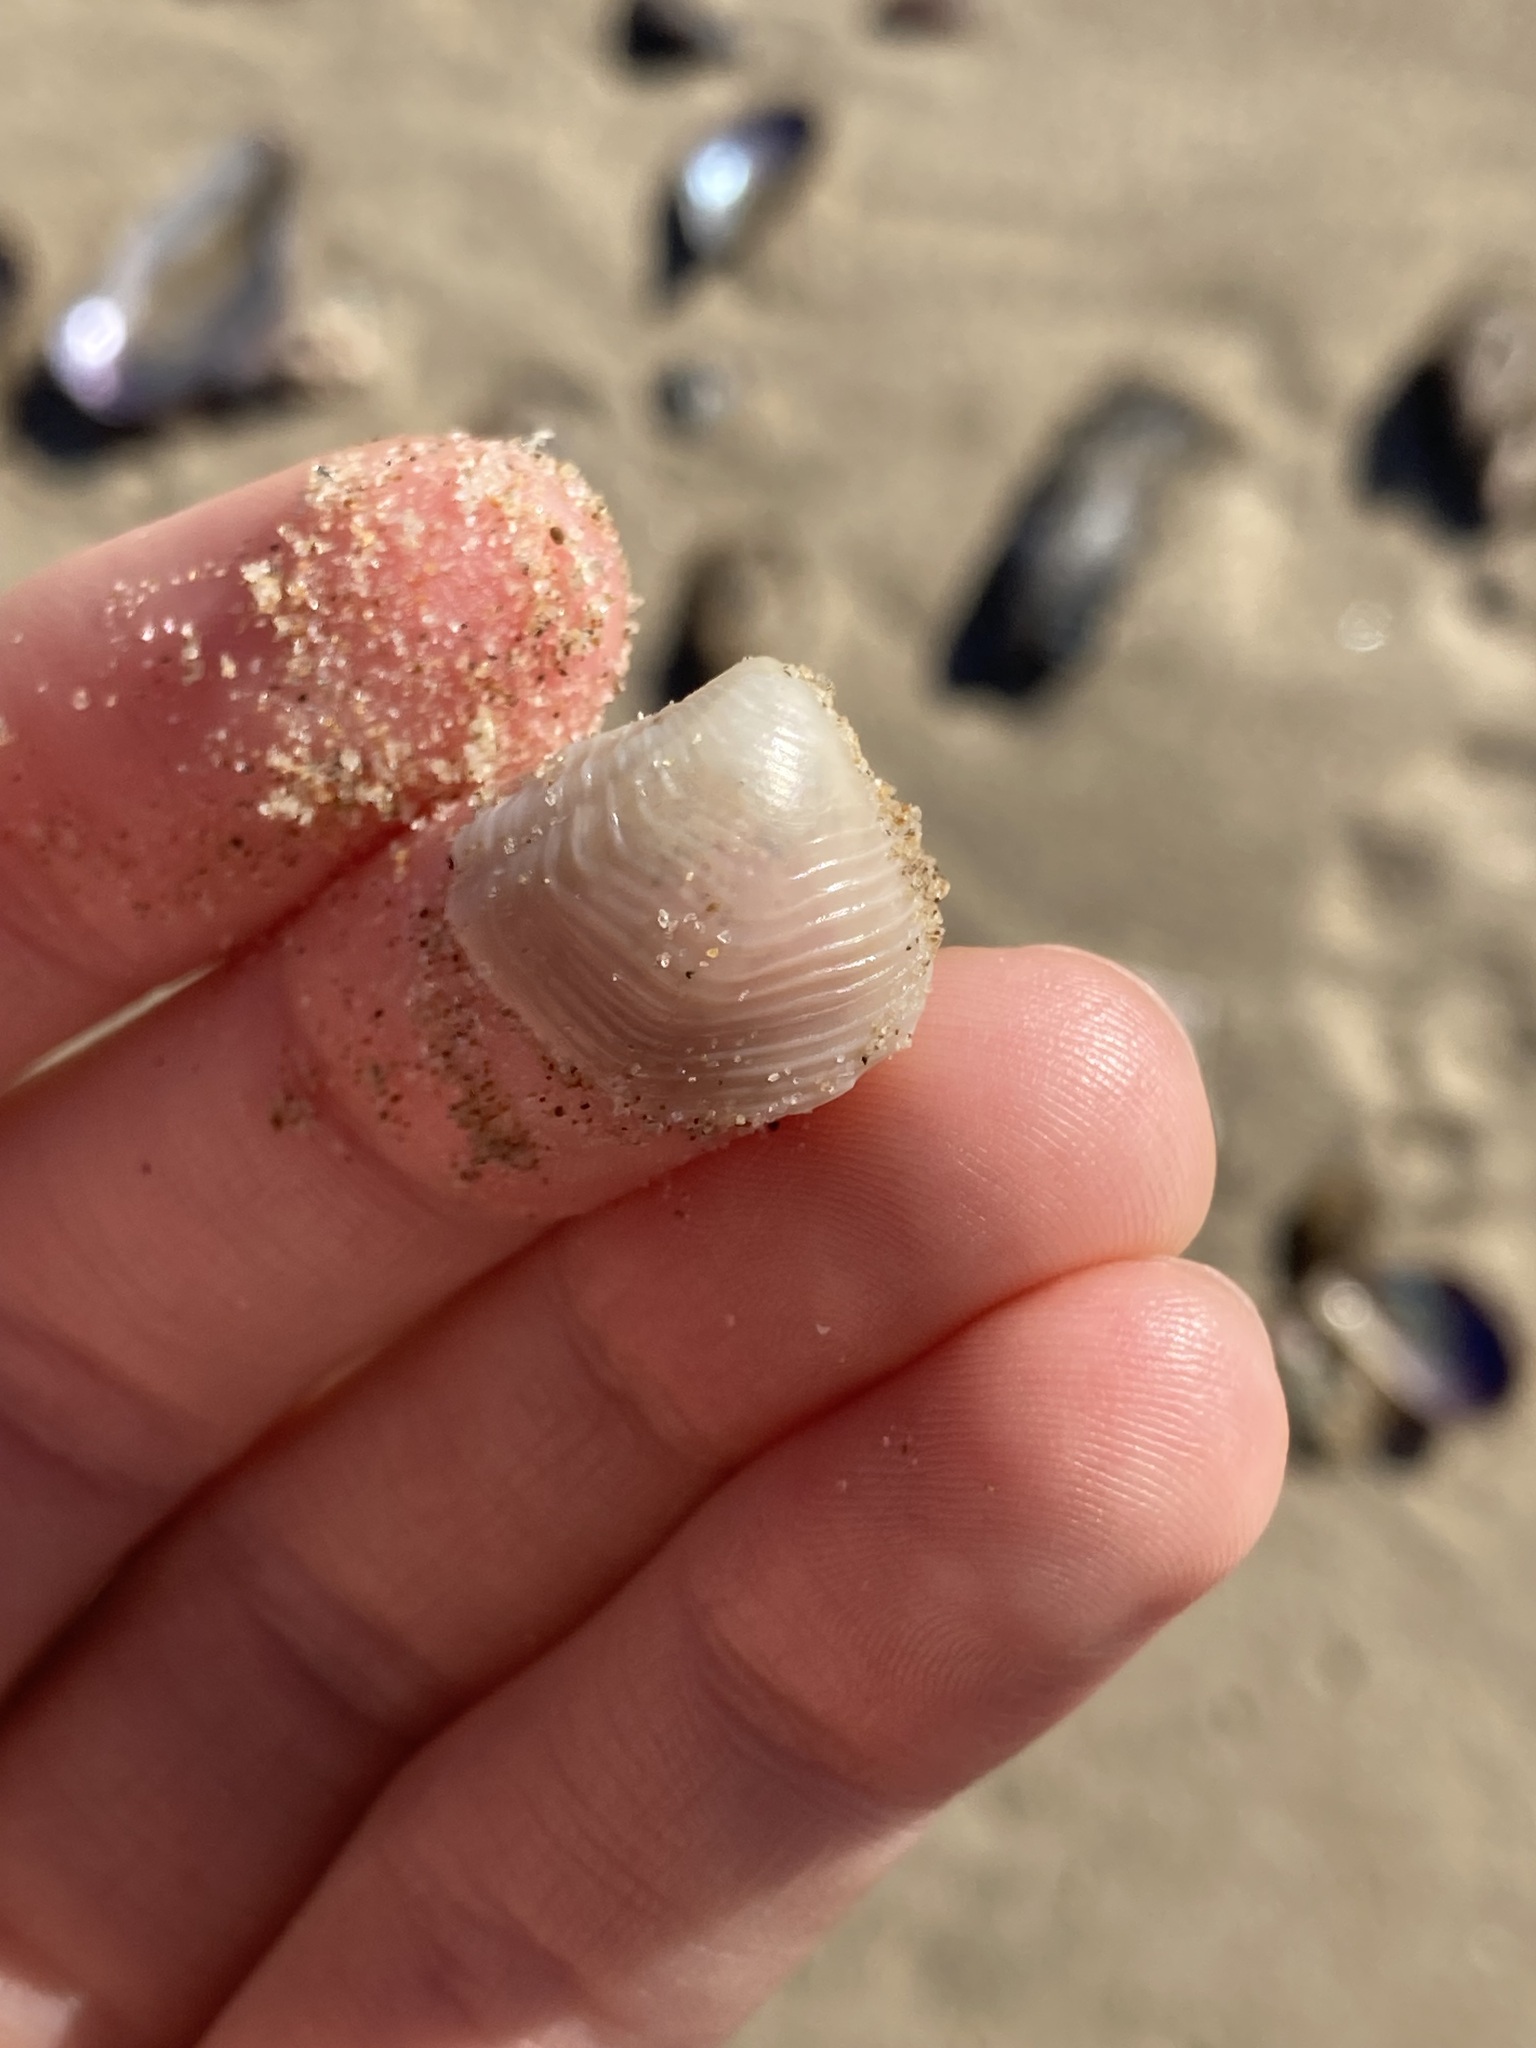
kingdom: Animalia
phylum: Mollusca
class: Bivalvia
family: Myochamidae
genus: Myadora
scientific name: Myadora brevis
